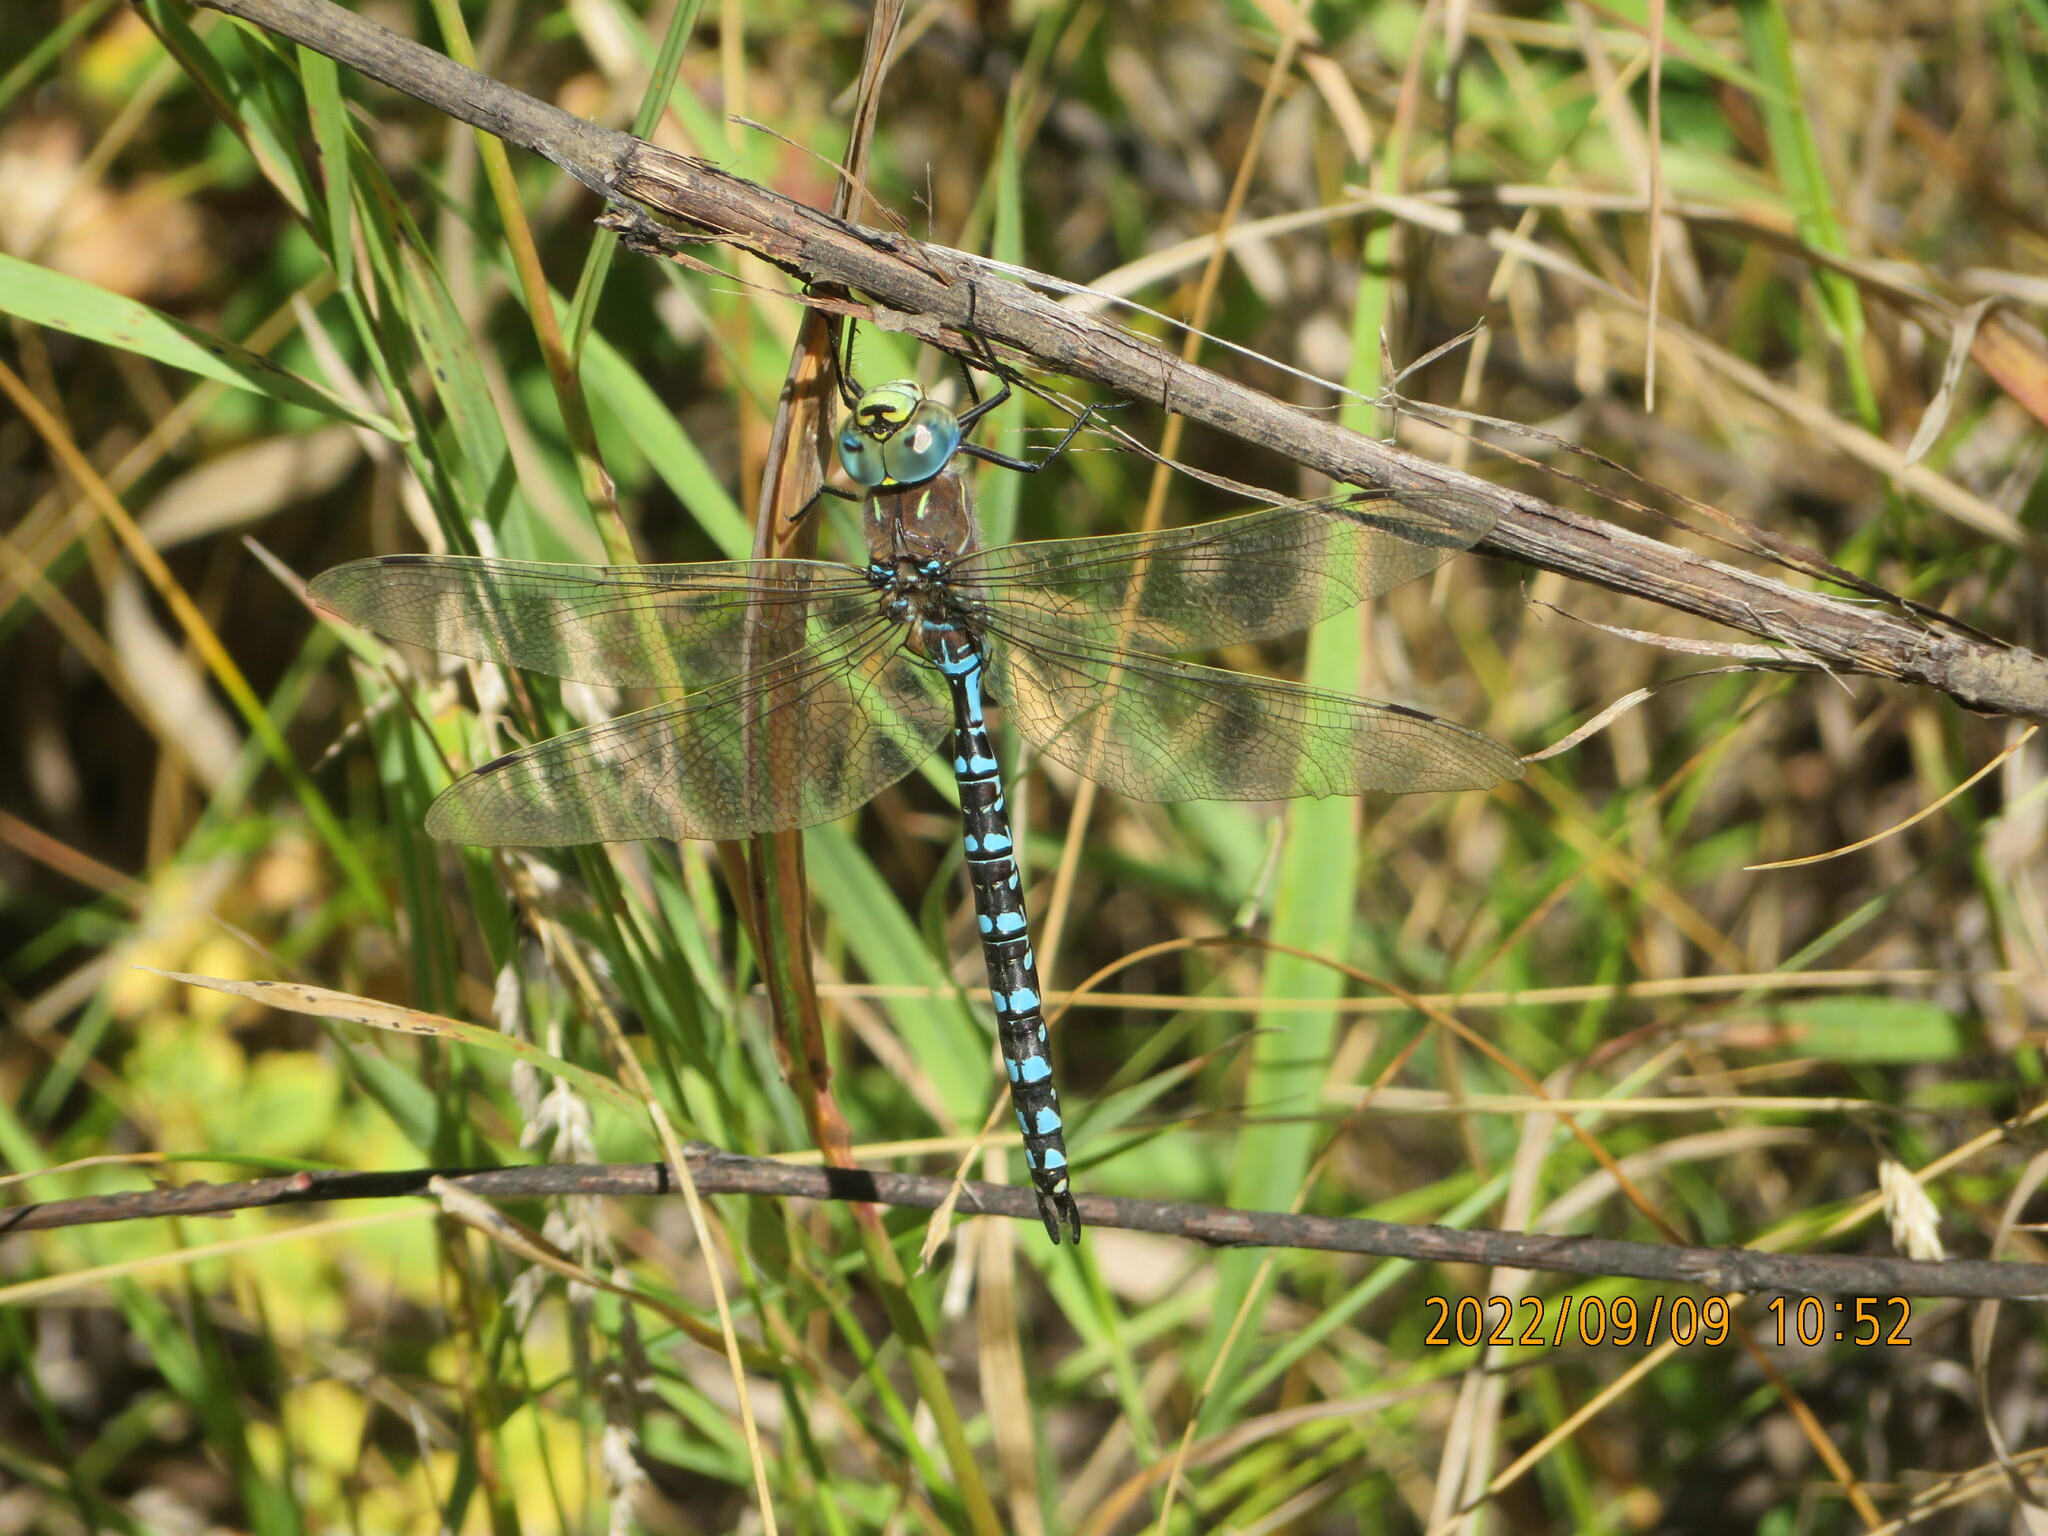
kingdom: Animalia
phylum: Arthropoda
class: Insecta
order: Odonata
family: Aeshnidae
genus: Aeshna
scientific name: Aeshna interrupta
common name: Variable darner
